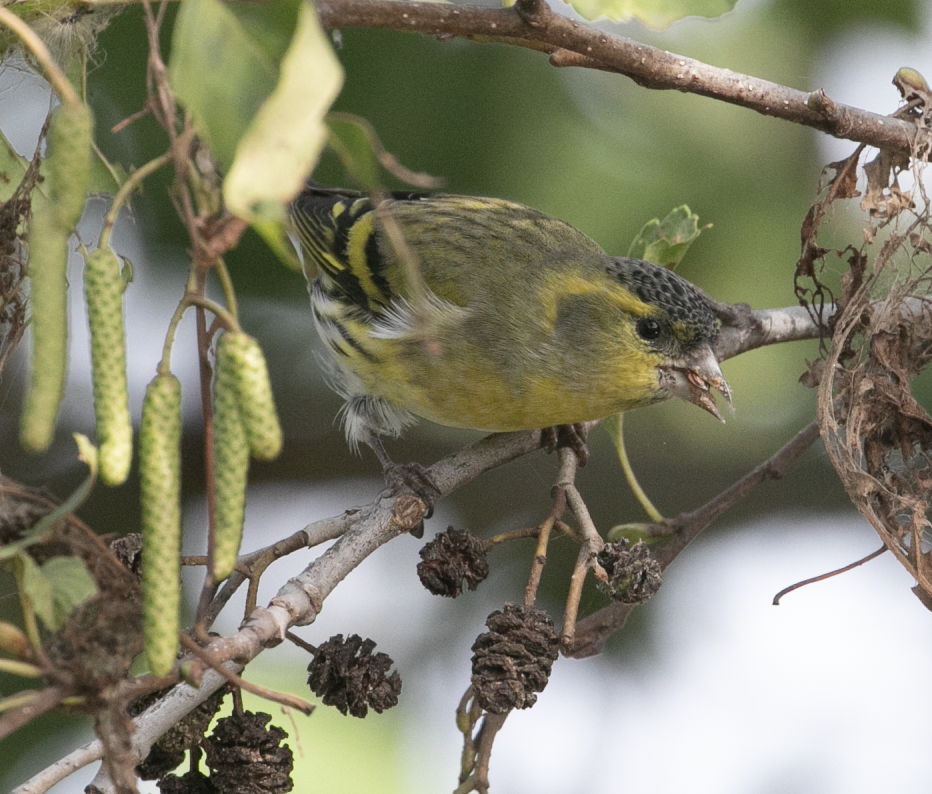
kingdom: Animalia
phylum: Chordata
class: Aves
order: Passeriformes
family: Fringillidae
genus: Spinus
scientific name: Spinus spinus
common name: Eurasian siskin
